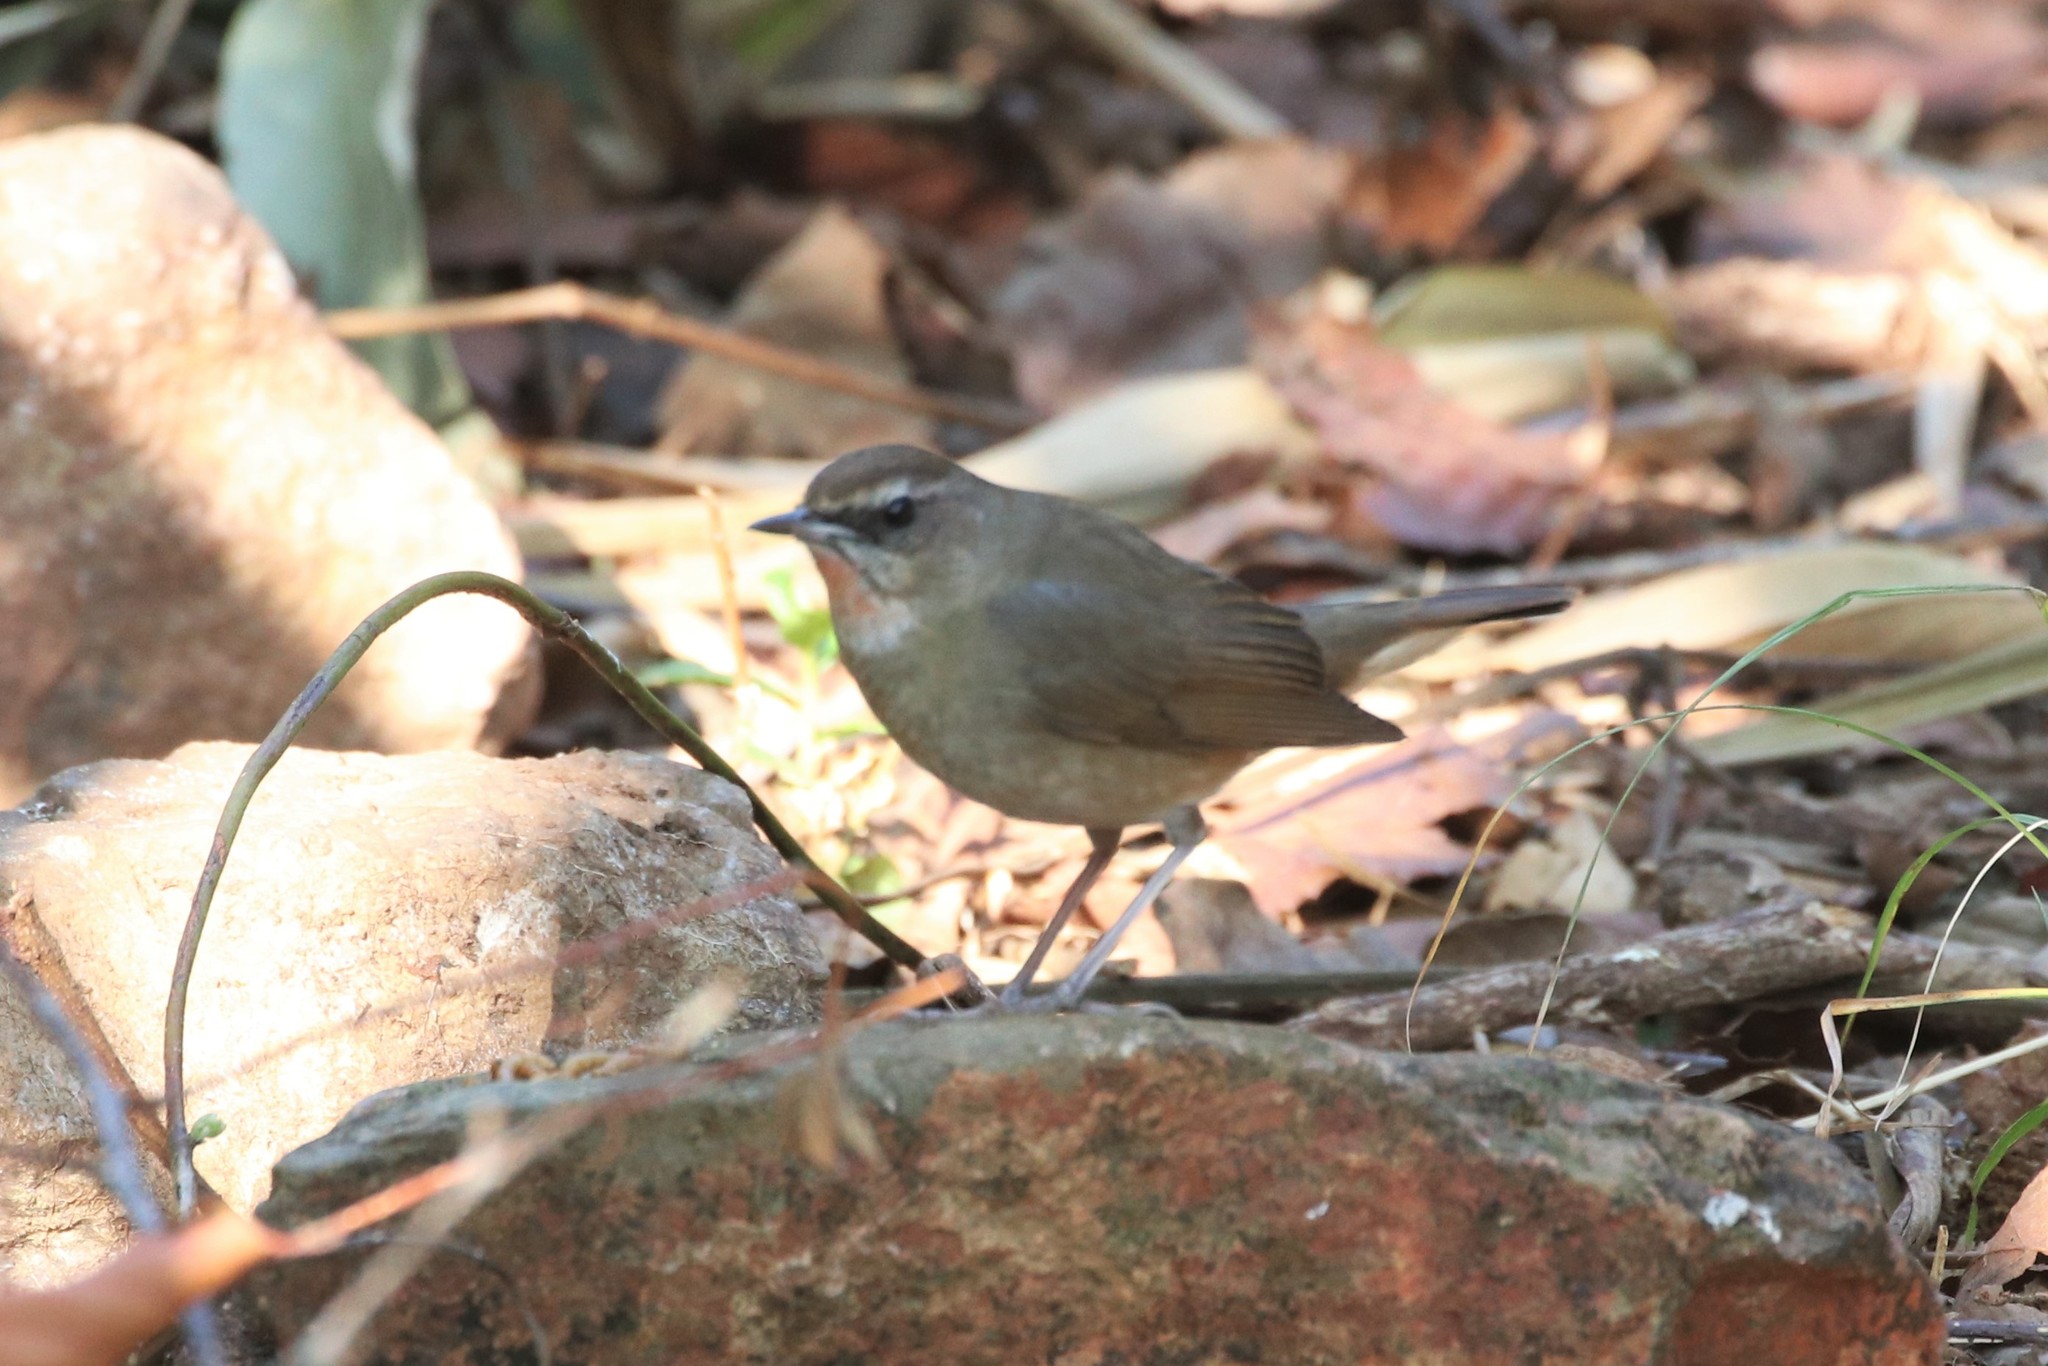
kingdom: Animalia
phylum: Chordata
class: Aves
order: Passeriformes
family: Muscicapidae
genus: Luscinia
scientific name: Luscinia calliope
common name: Siberian rubythroat
